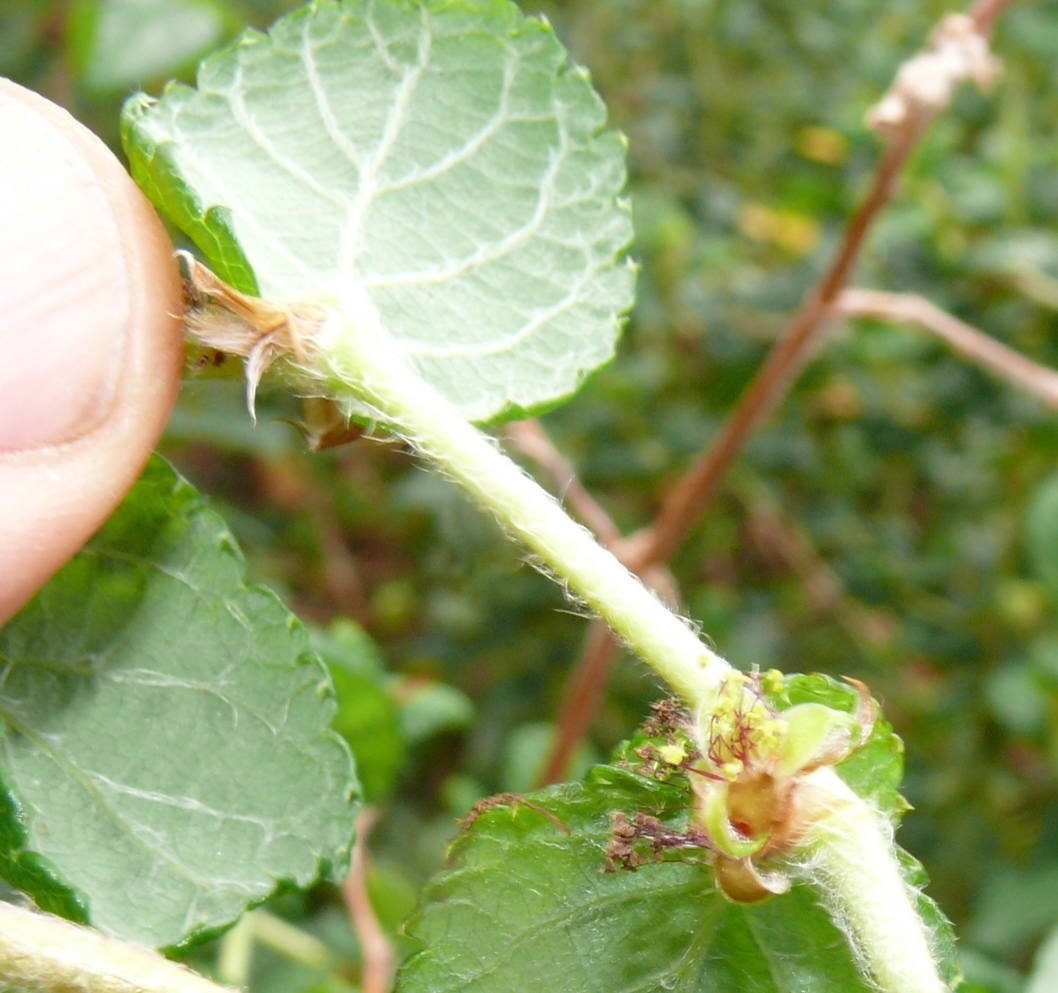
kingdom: Plantae
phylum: Tracheophyta
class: Magnoliopsida
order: Rosales
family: Rosaceae
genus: Cliffortia
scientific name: Cliffortia odorata
